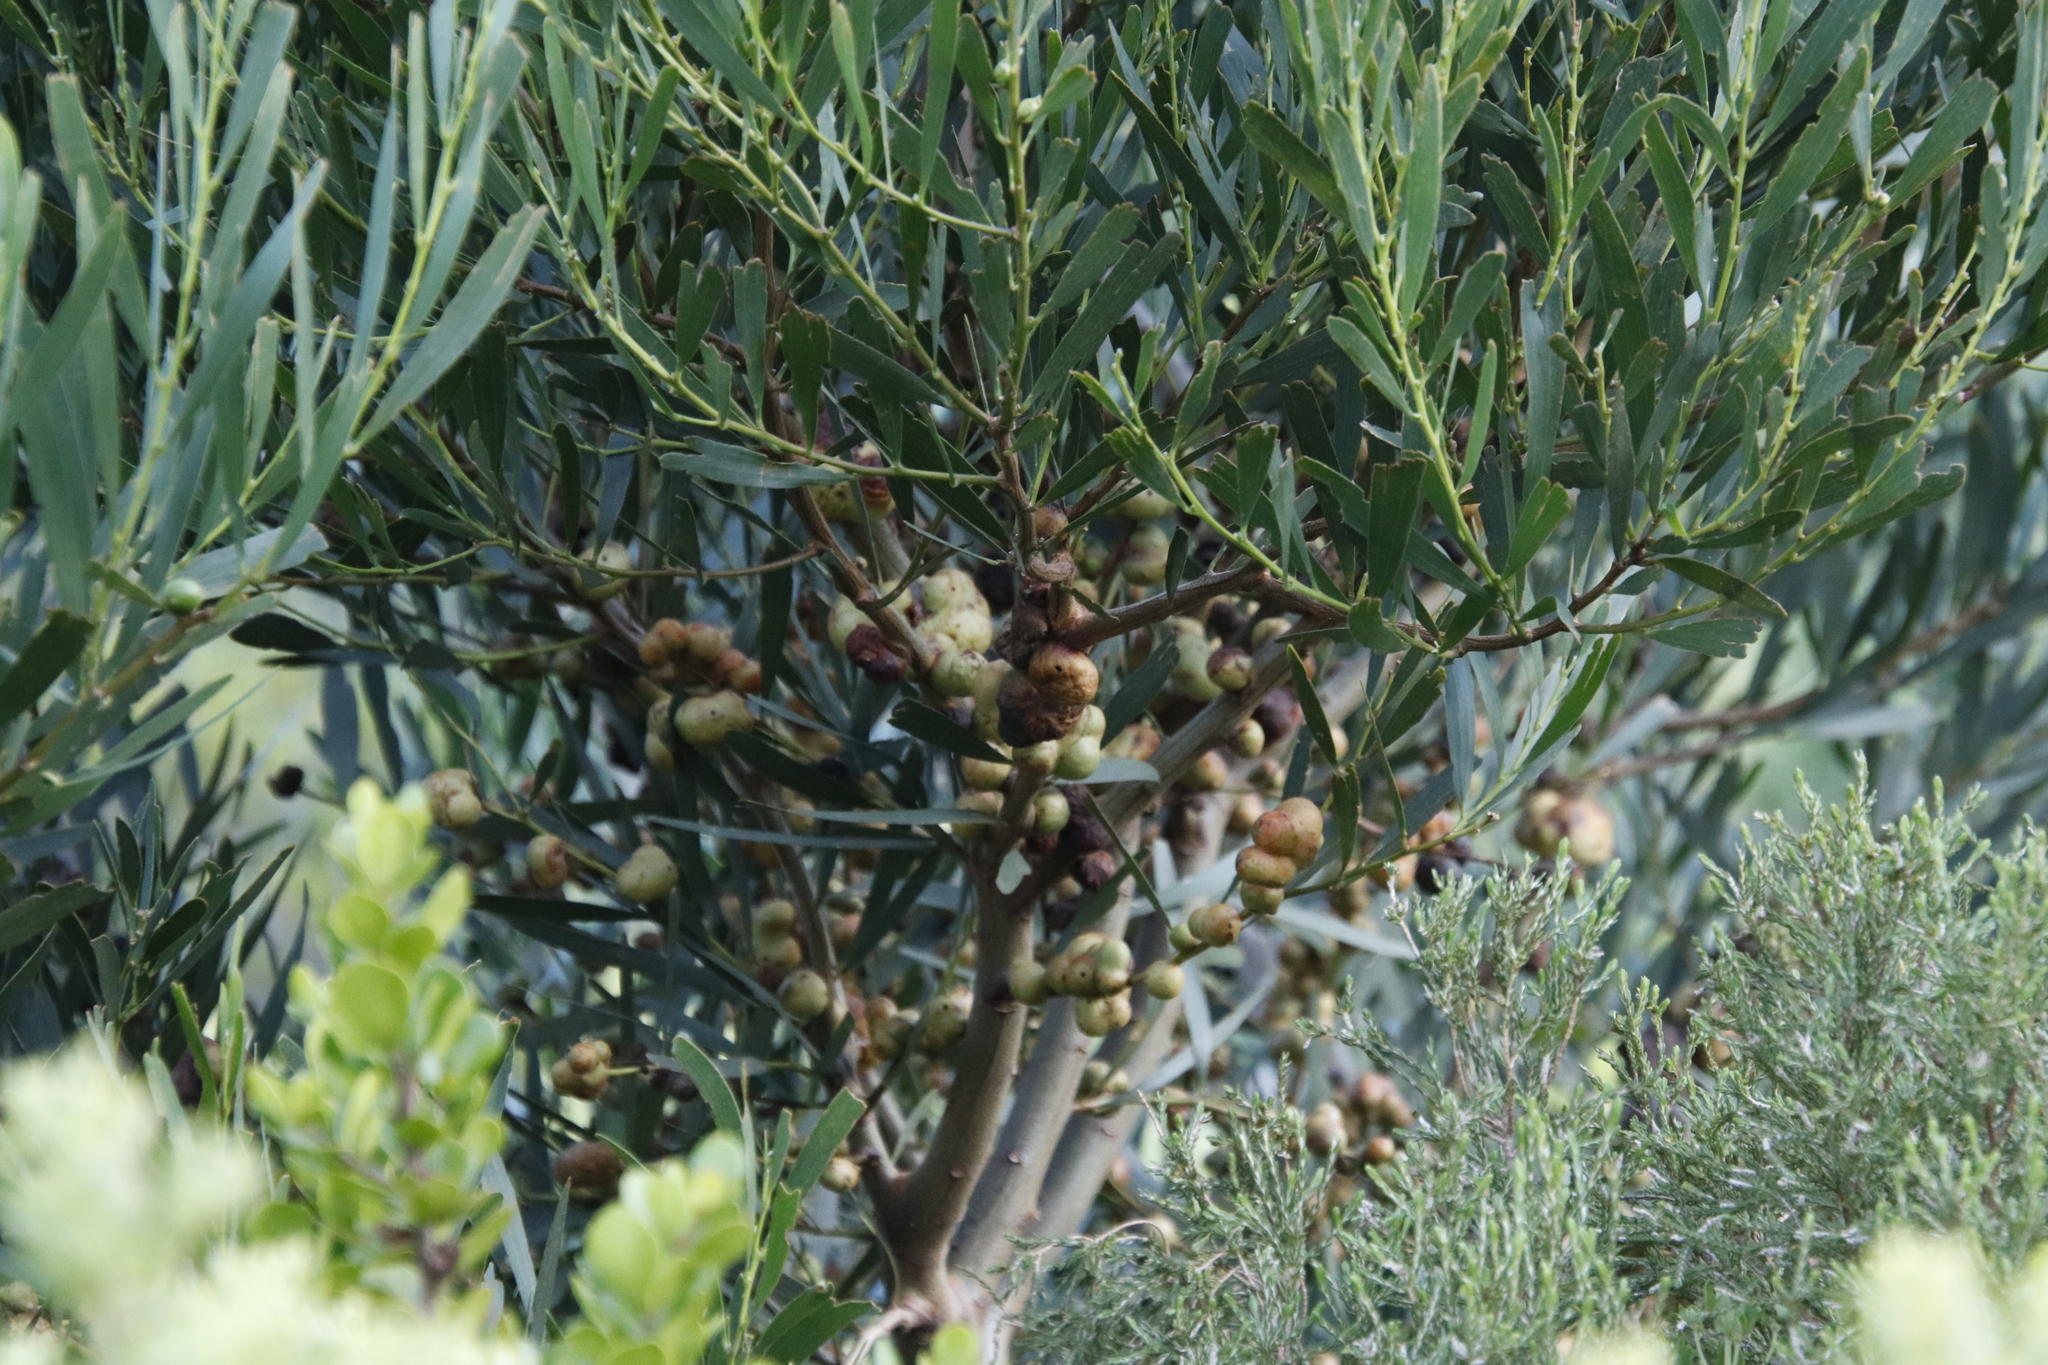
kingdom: Animalia
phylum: Arthropoda
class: Insecta
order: Hymenoptera
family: Pteromalidae
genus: Trichilogaster
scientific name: Trichilogaster acaciaelongifoliae
